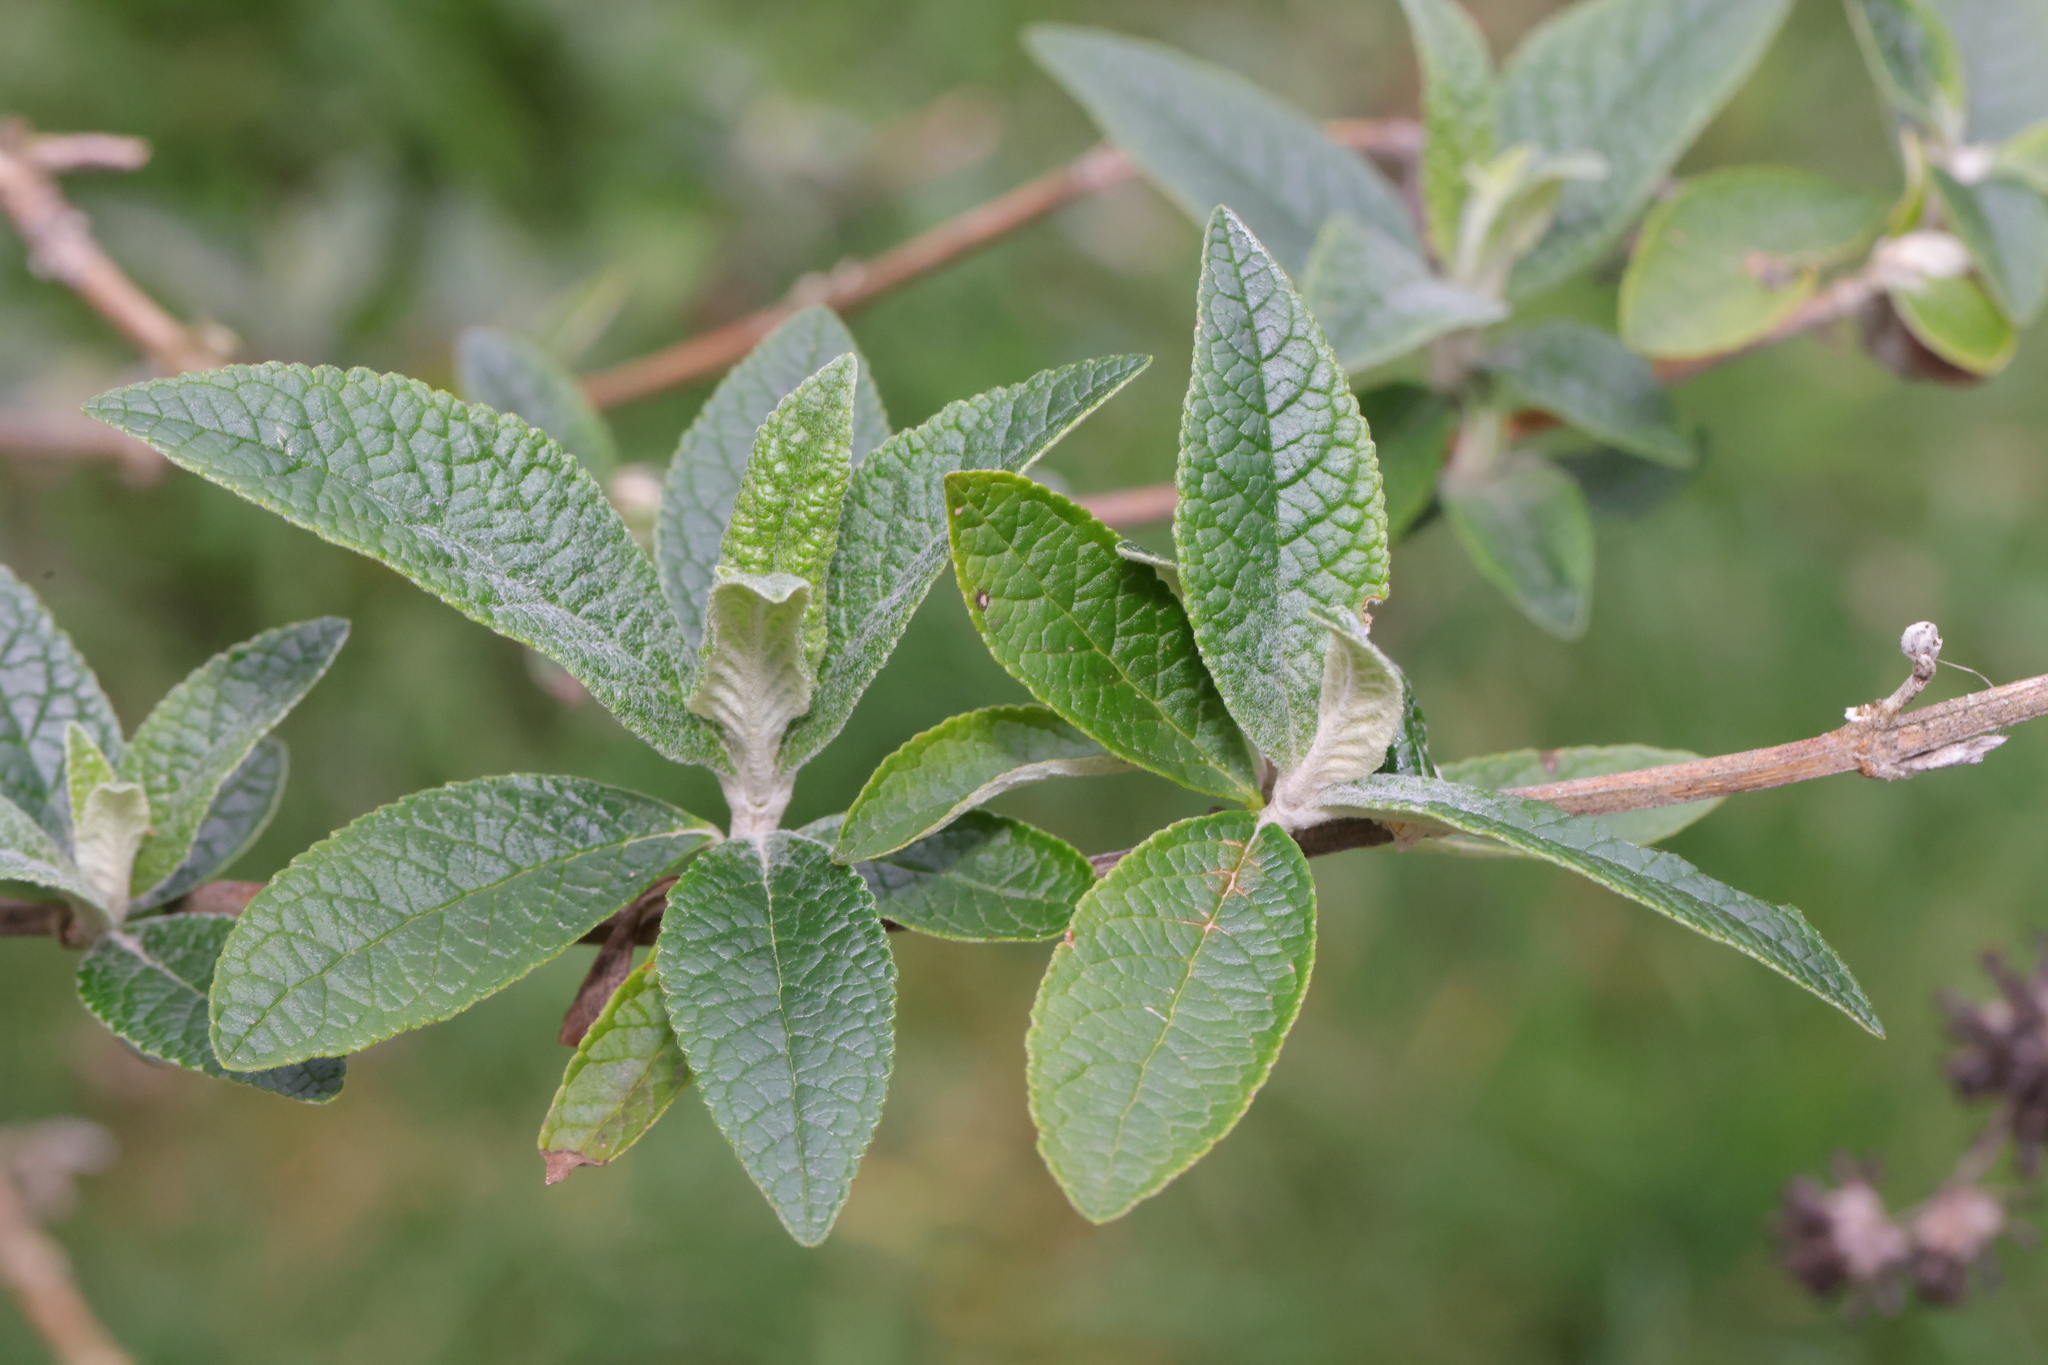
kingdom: Plantae
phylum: Tracheophyta
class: Magnoliopsida
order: Lamiales
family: Scrophulariaceae
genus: Buddleja
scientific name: Buddleja davidii
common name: Butterfly-bush
